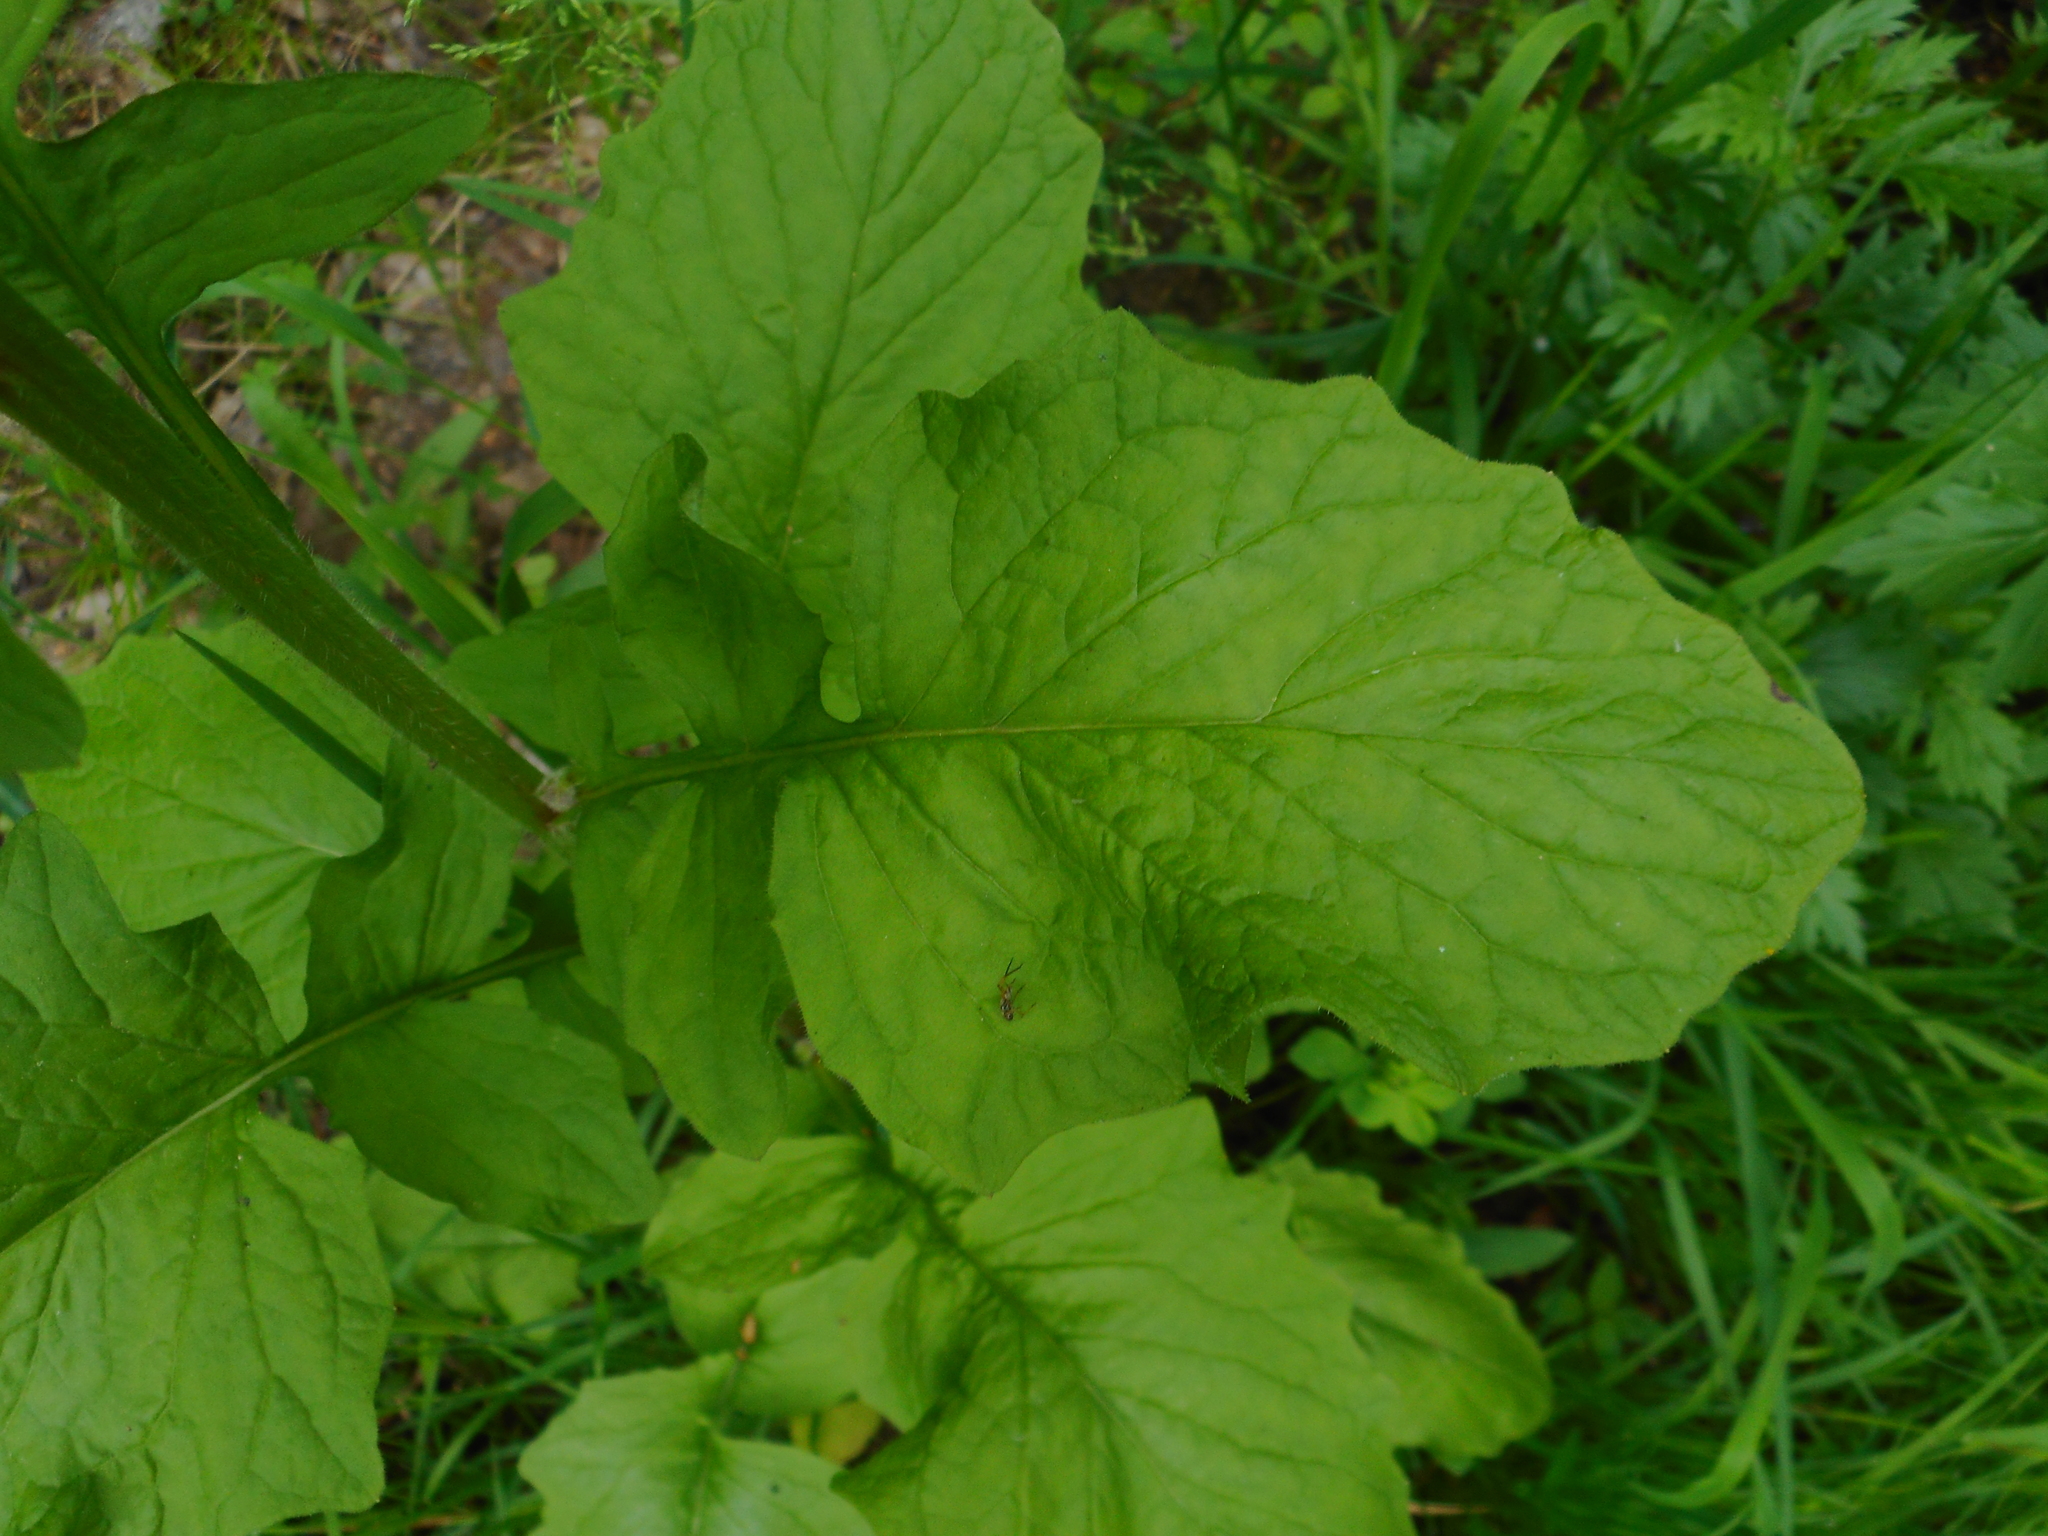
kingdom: Plantae
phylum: Tracheophyta
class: Magnoliopsida
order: Asterales
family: Asteraceae
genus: Lapsana
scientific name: Lapsana communis
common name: Nipplewort
